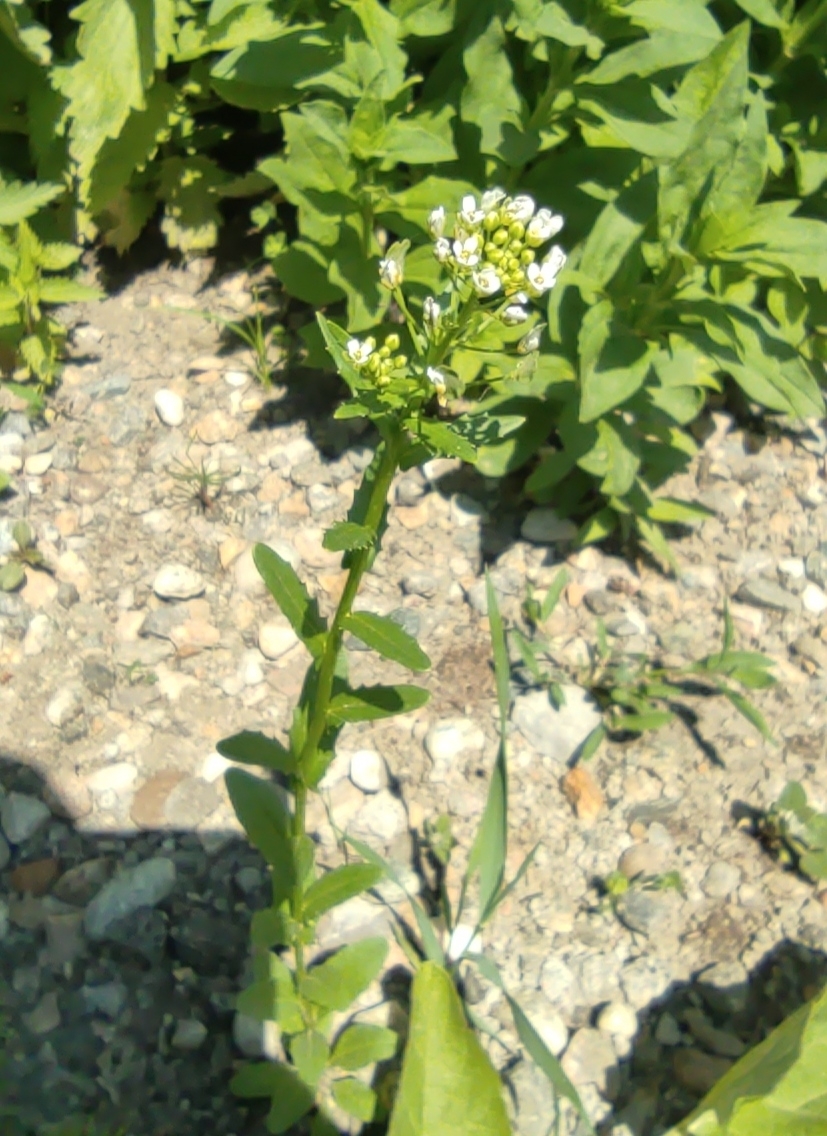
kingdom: Plantae
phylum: Tracheophyta
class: Magnoliopsida
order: Brassicales
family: Brassicaceae
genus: Thlaspi
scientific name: Thlaspi arvense
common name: Field pennycress
